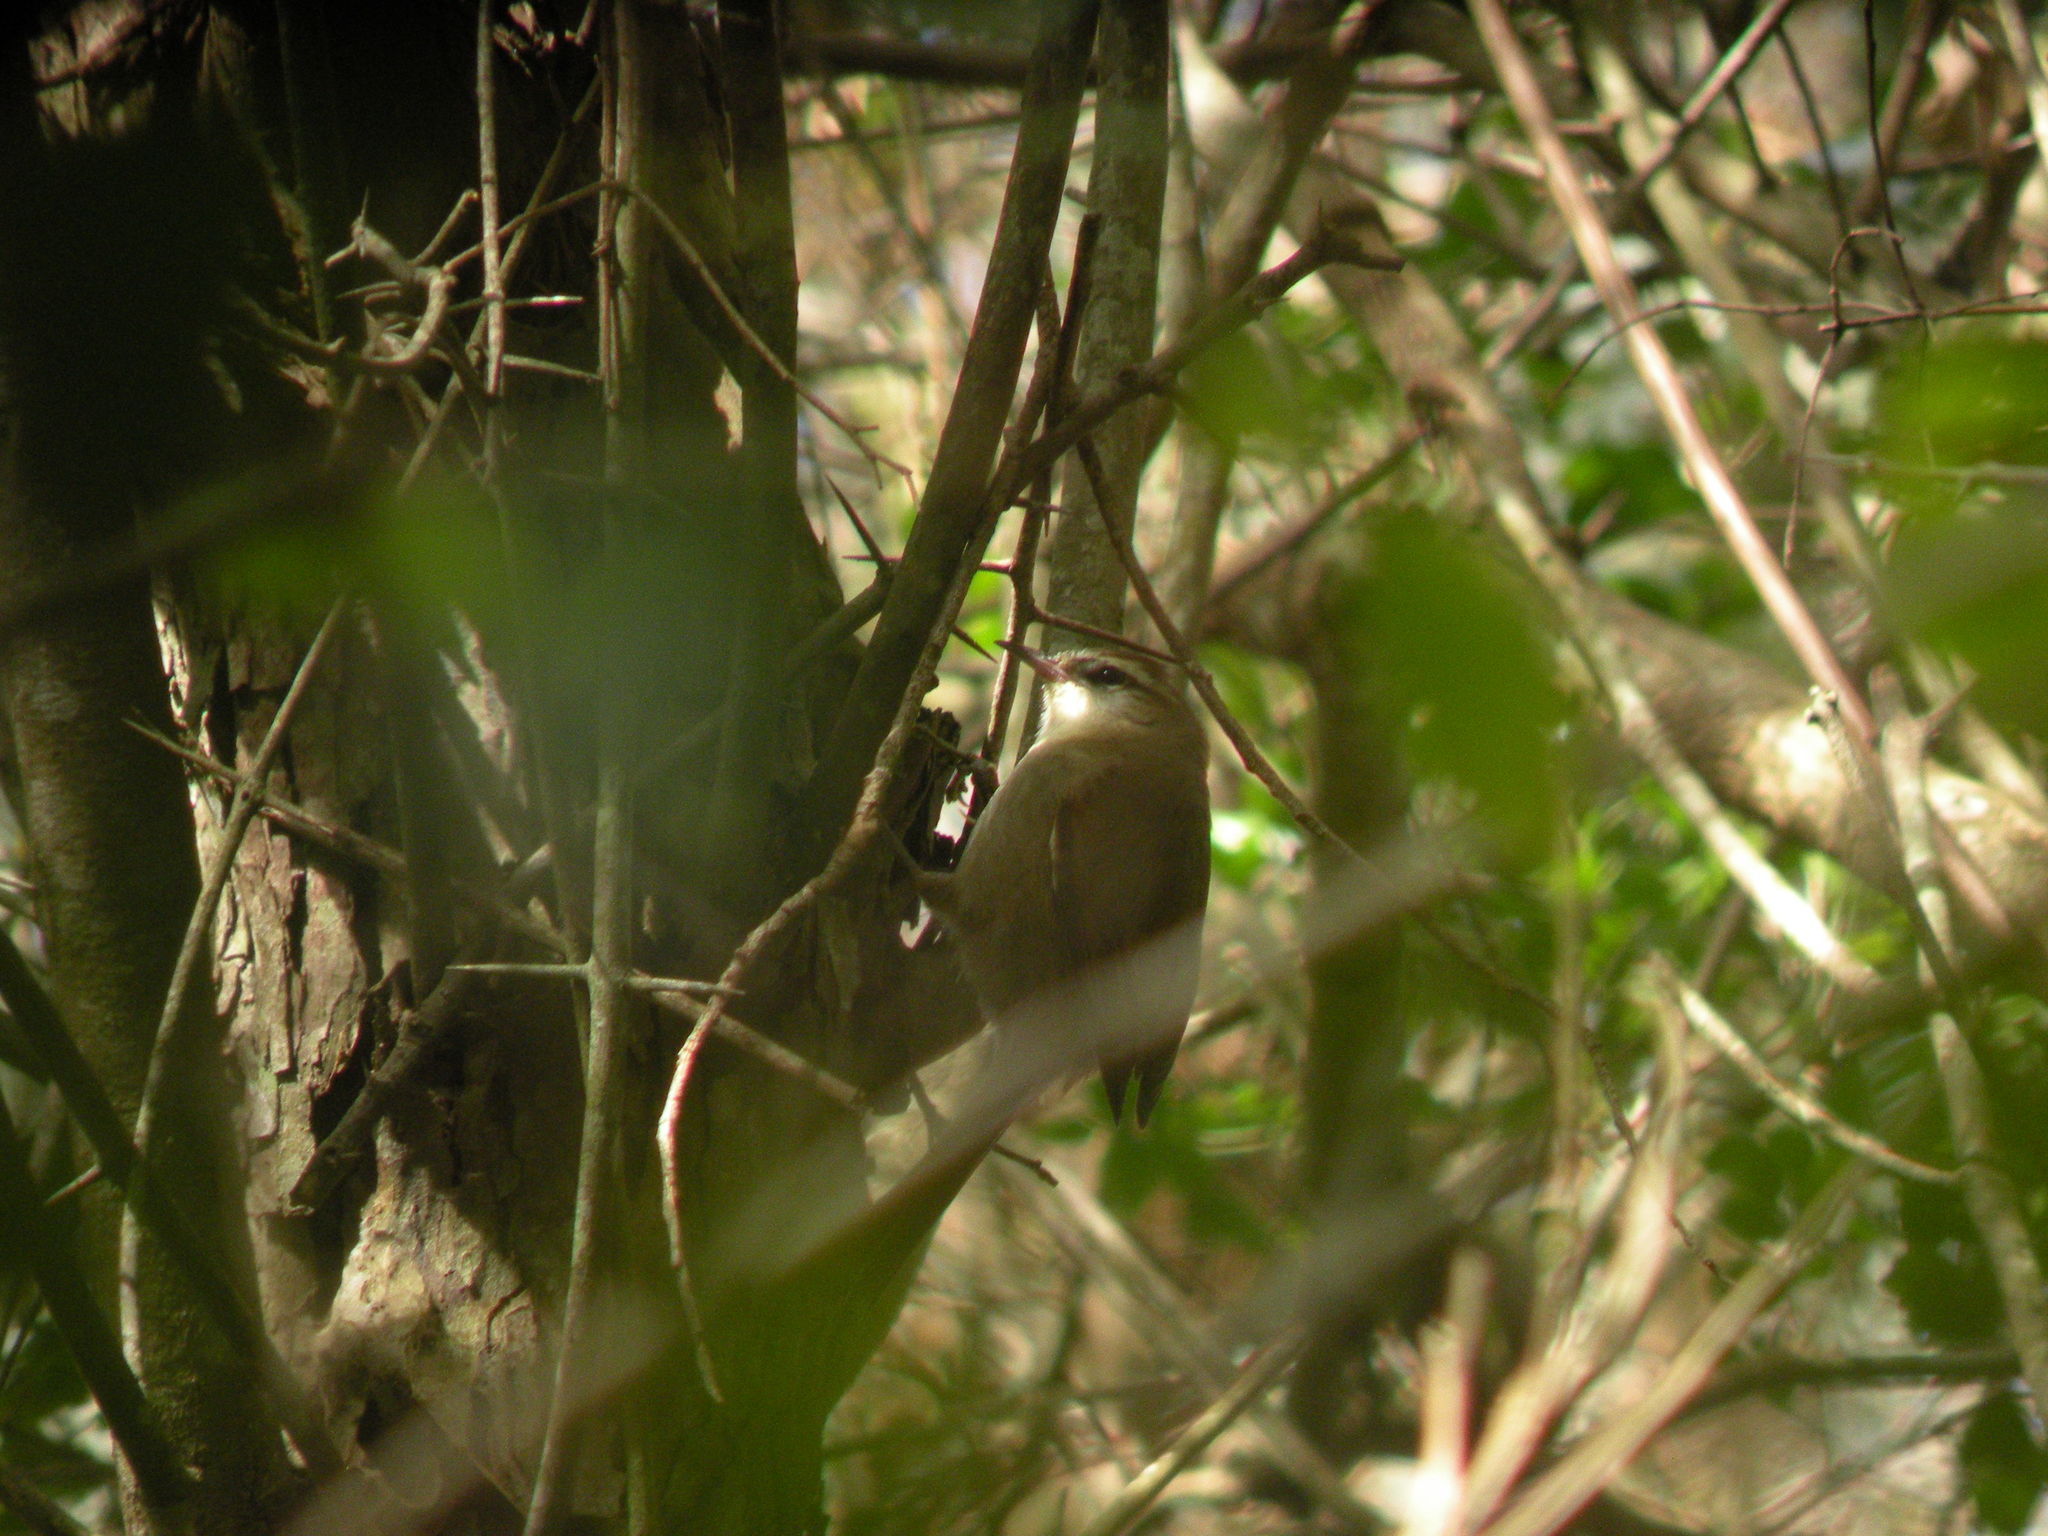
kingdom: Animalia
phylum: Chordata
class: Aves
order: Passeriformes
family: Furnariidae
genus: Cranioleuca
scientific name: Cranioleuca pyrrhophia
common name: Stripe-crowned spinetail
